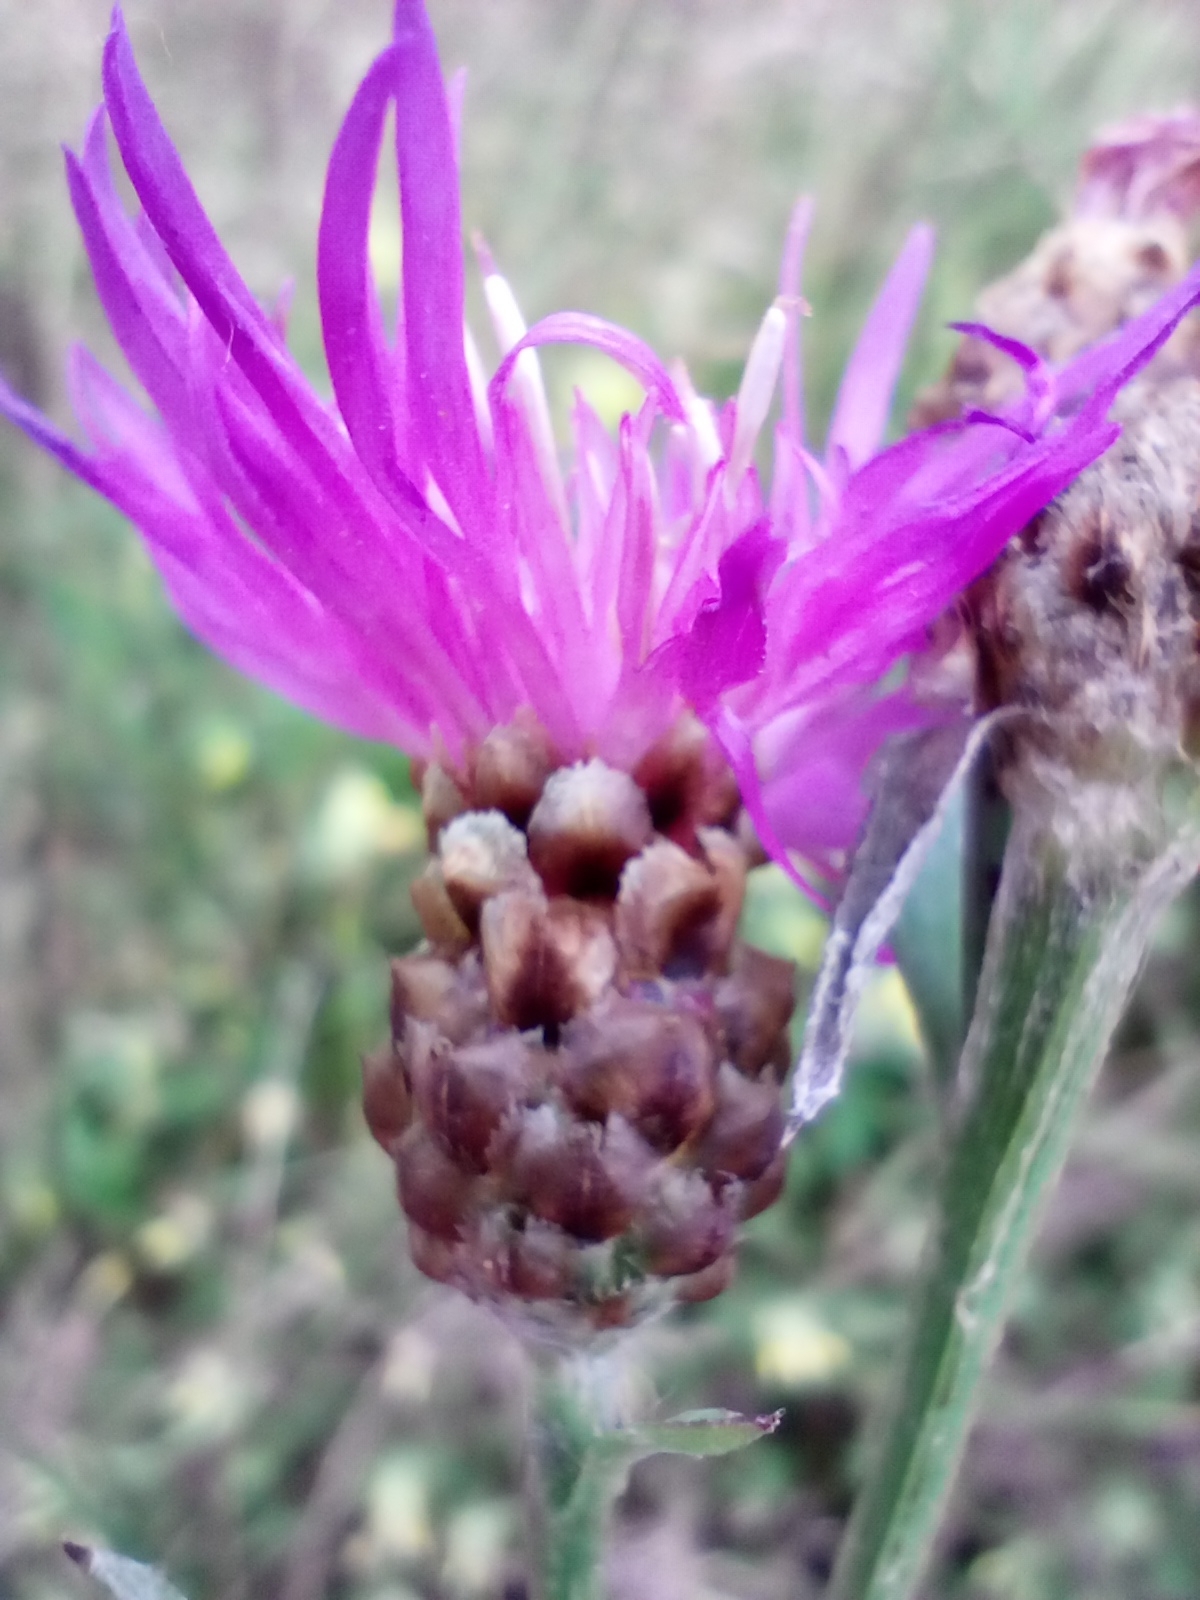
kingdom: Plantae
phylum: Tracheophyta
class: Magnoliopsida
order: Asterales
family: Asteraceae
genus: Centaurea
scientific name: Centaurea jacea
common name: Brown knapweed
